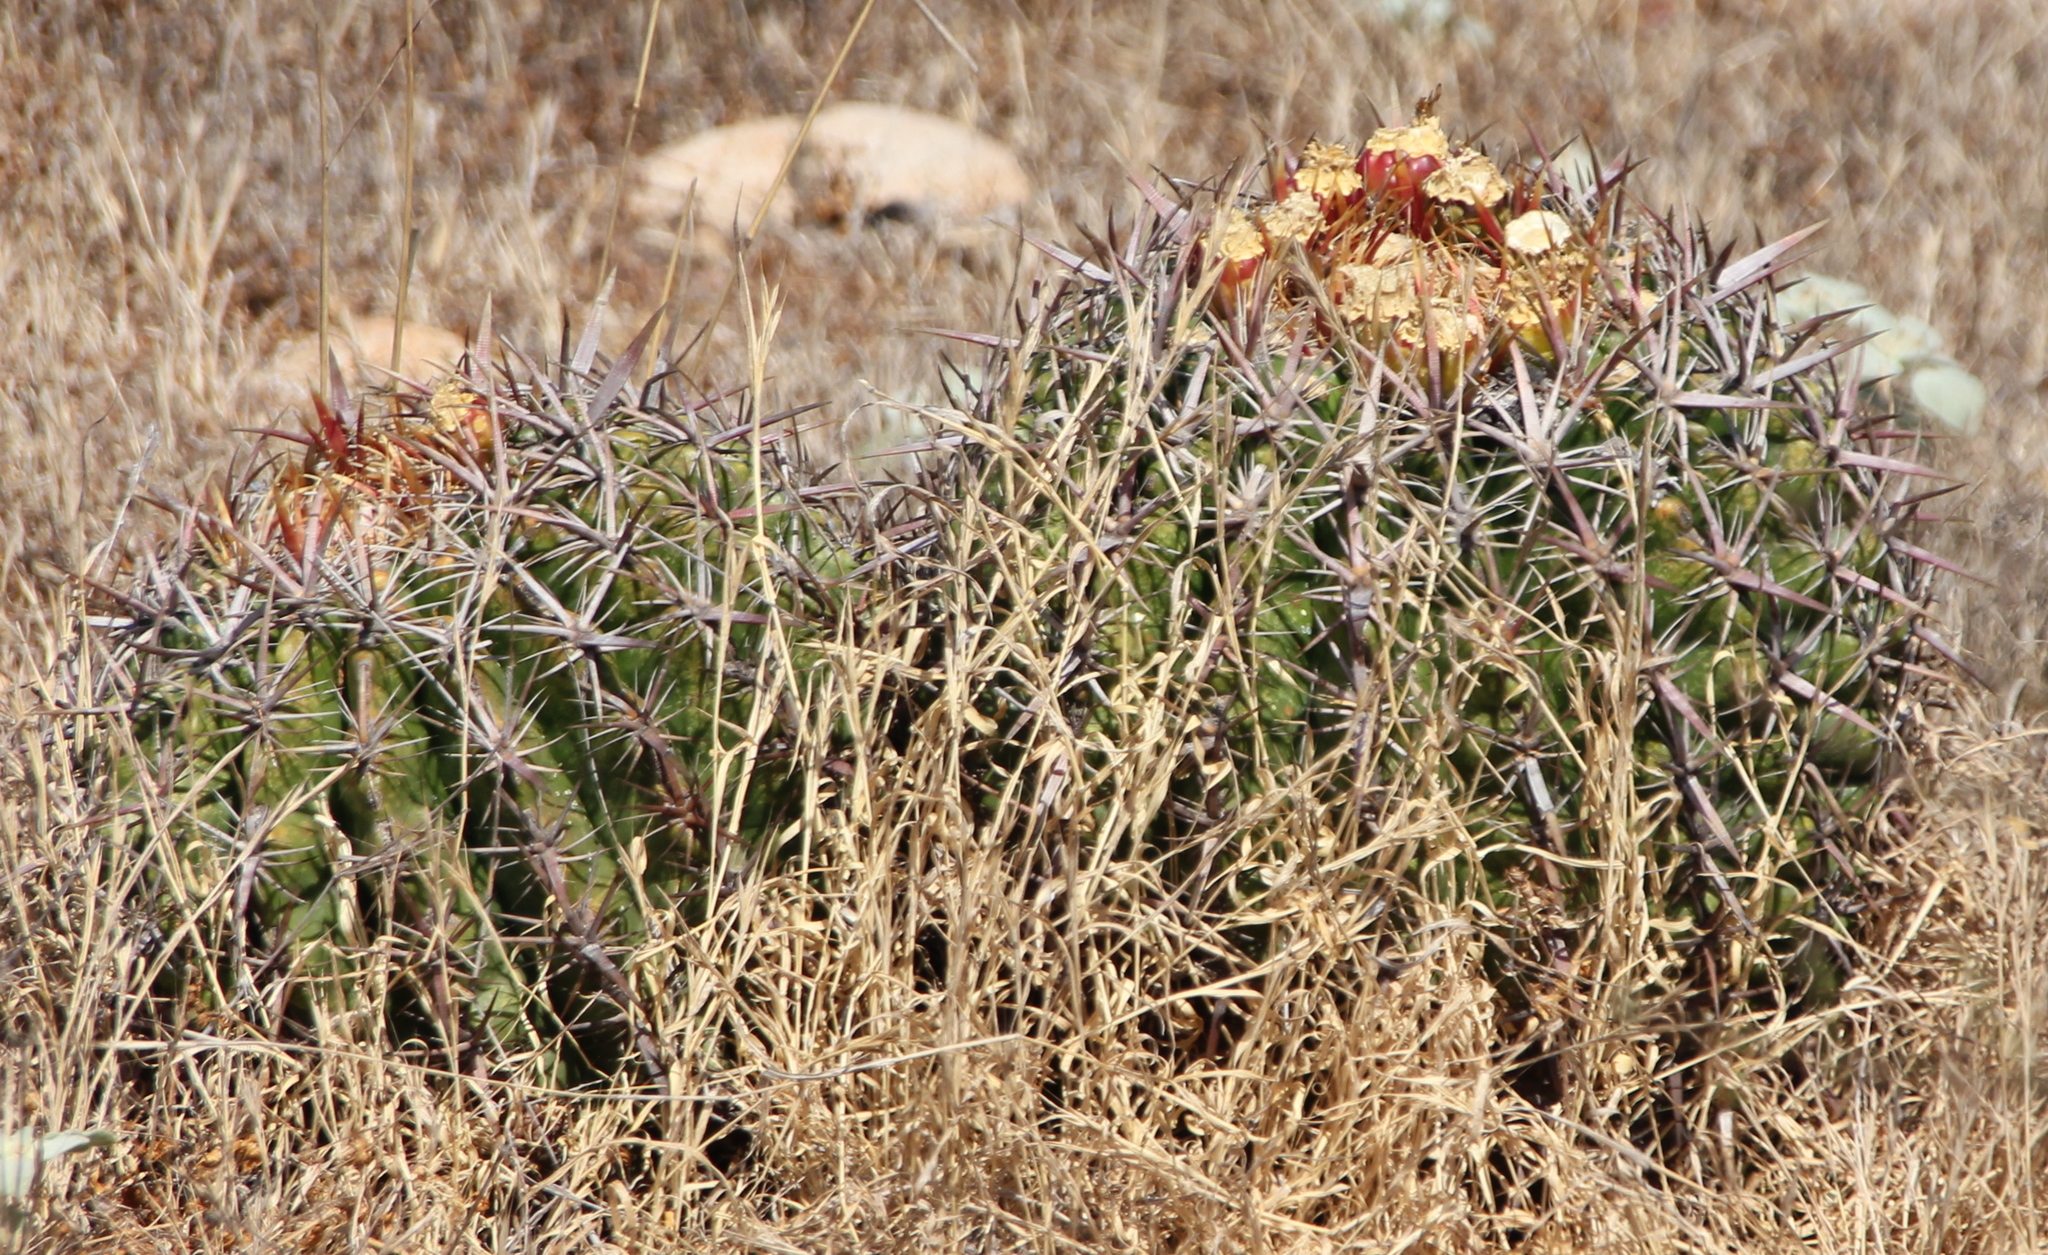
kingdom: Plantae
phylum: Tracheophyta
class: Magnoliopsida
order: Caryophyllales
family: Cactaceae
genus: Ferocactus
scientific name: Ferocactus viridescens
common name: San diego barrel cactus
